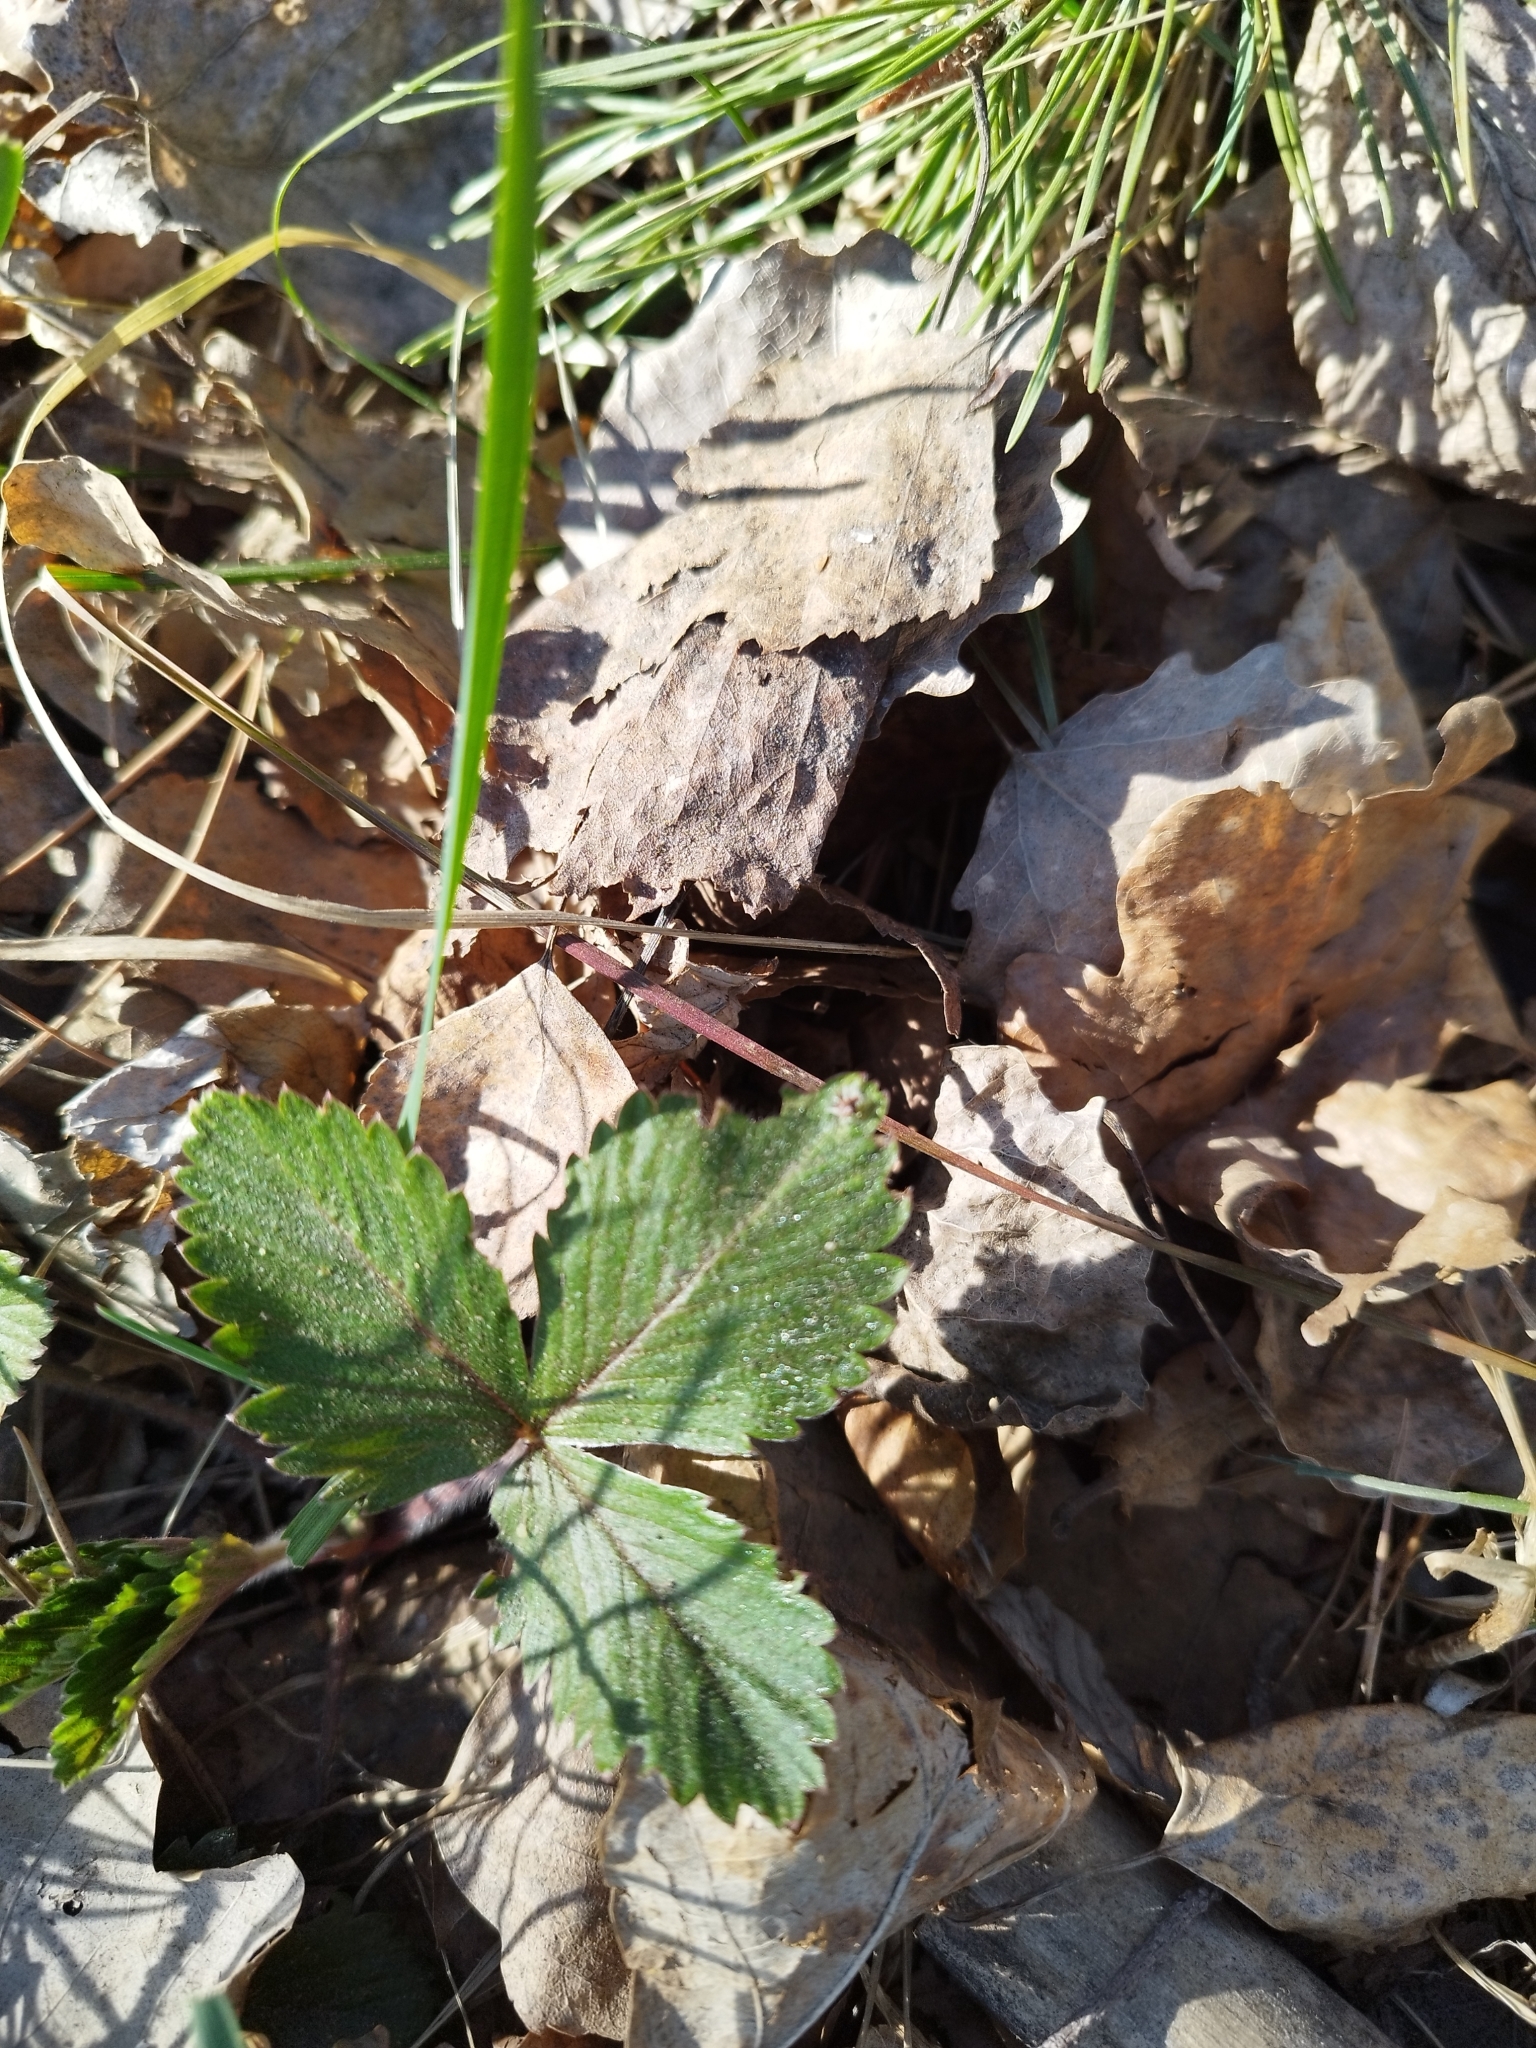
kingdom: Plantae
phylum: Tracheophyta
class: Magnoliopsida
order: Rosales
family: Rosaceae
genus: Fragaria
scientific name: Fragaria vesca
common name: Wild strawberry
